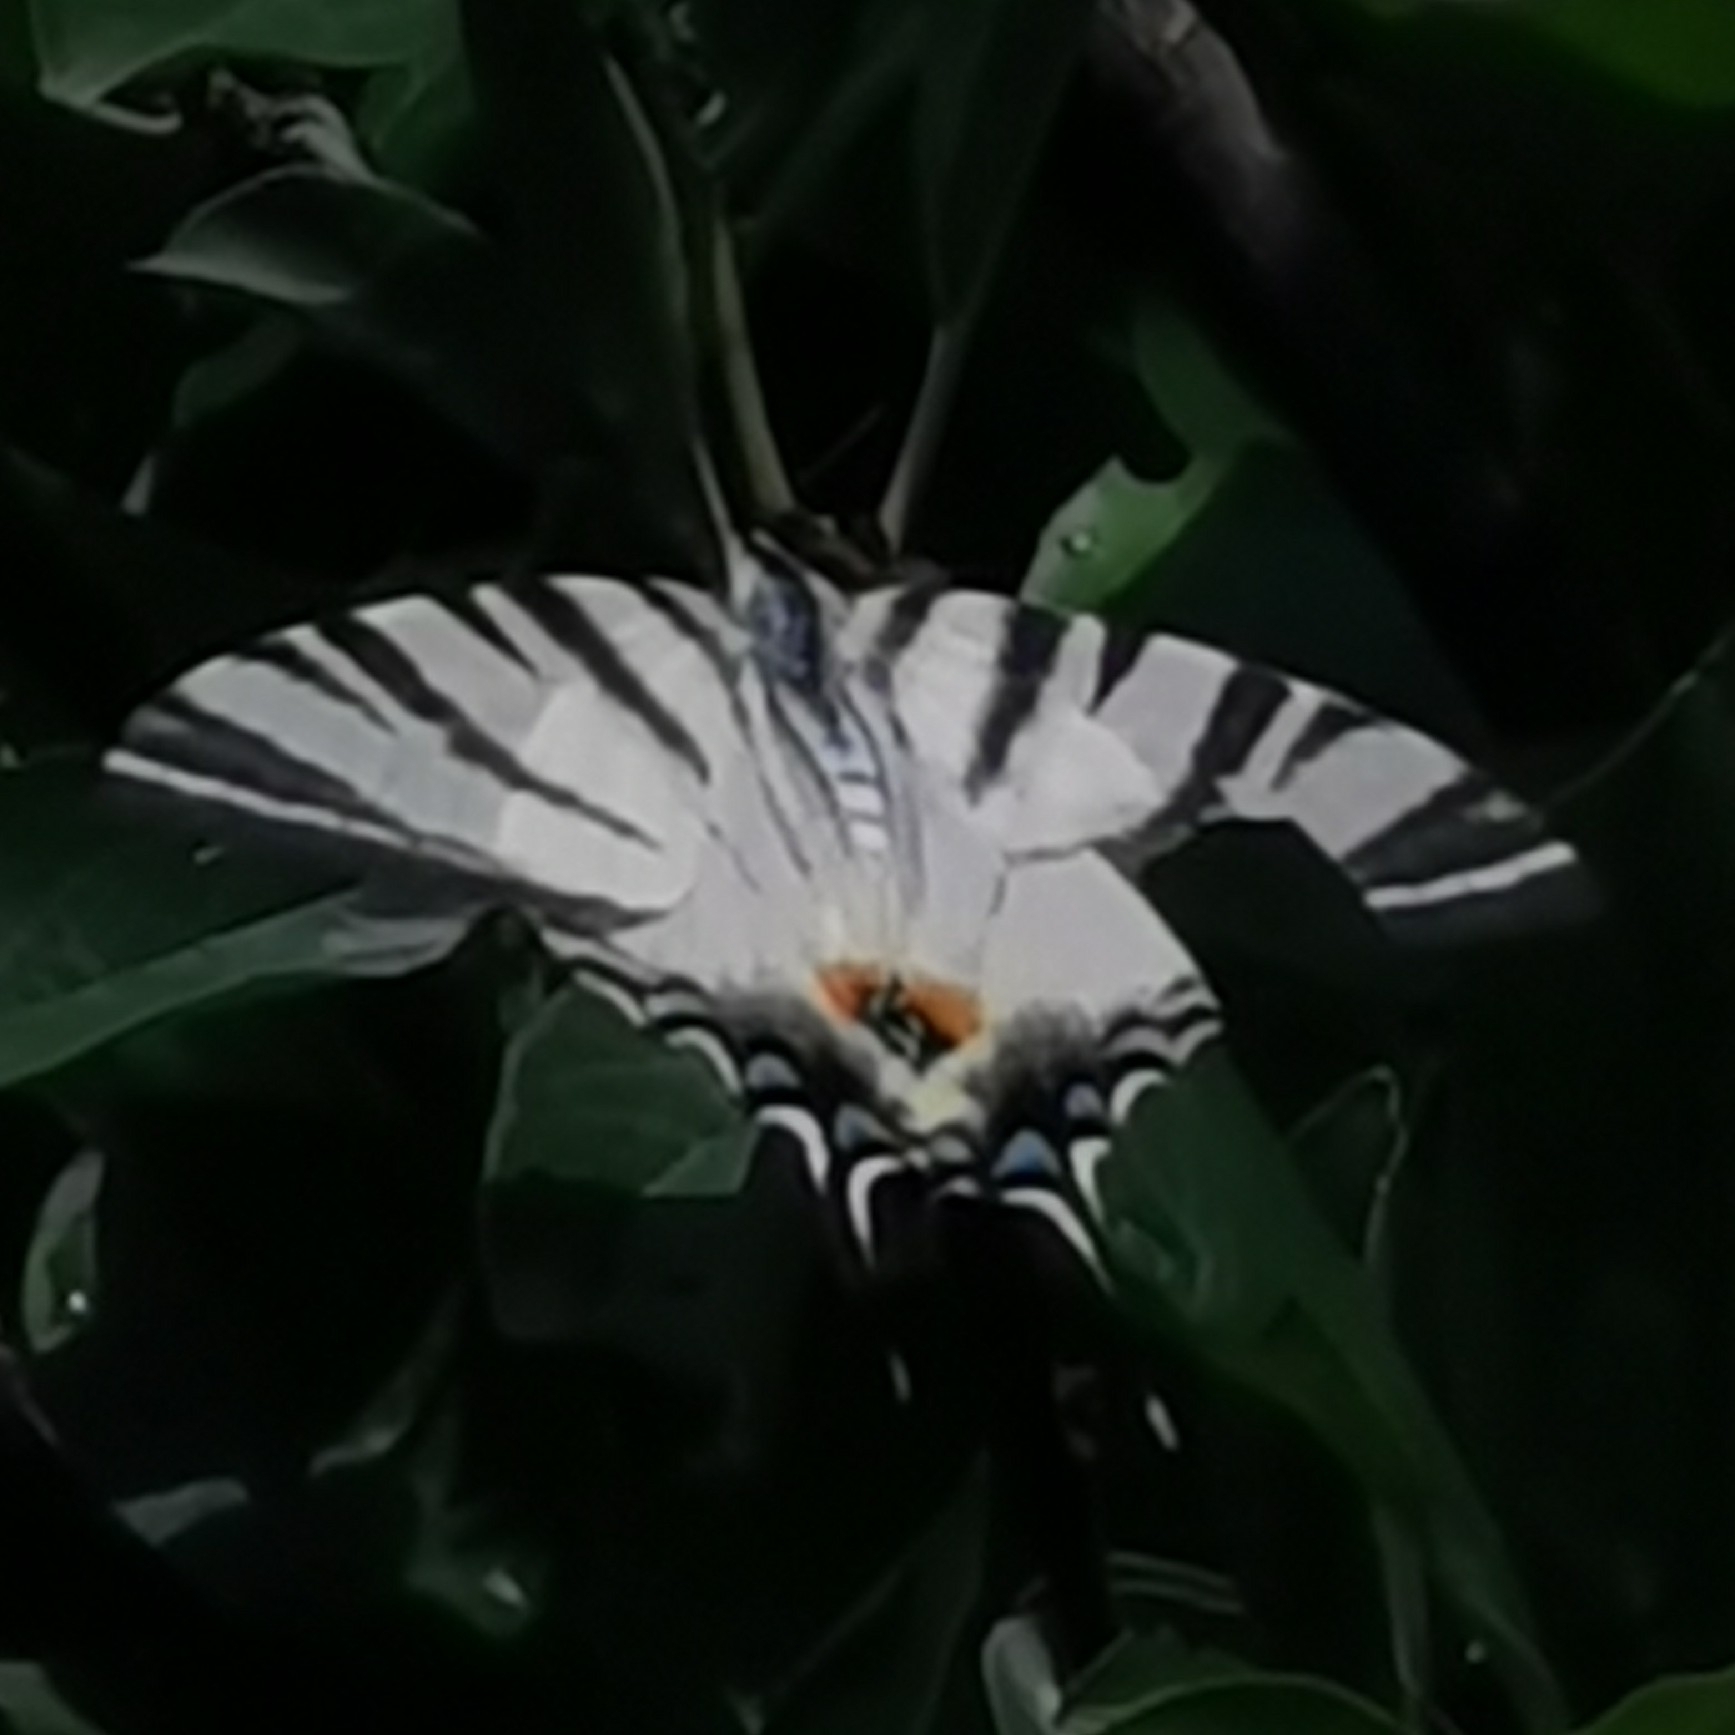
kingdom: Animalia
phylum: Arthropoda
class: Insecta
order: Lepidoptera
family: Papilionidae
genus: Iphiclides
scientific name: Iphiclides podalirius
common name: Scarce swallowtail
